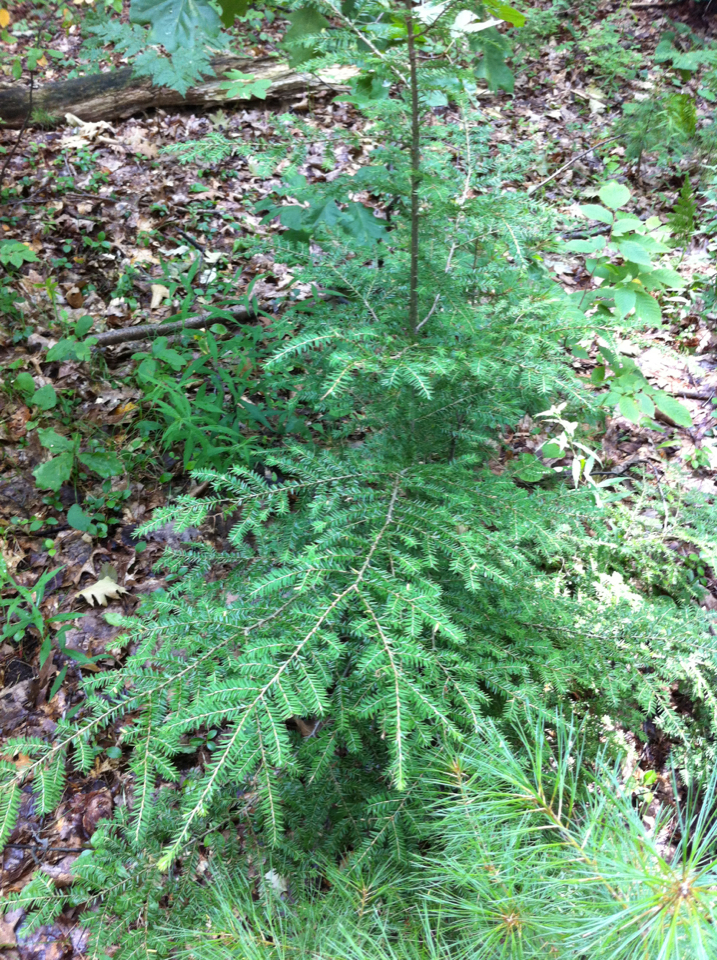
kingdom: Plantae
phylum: Tracheophyta
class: Pinopsida
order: Pinales
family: Pinaceae
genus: Tsuga
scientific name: Tsuga canadensis
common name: Eastern hemlock
